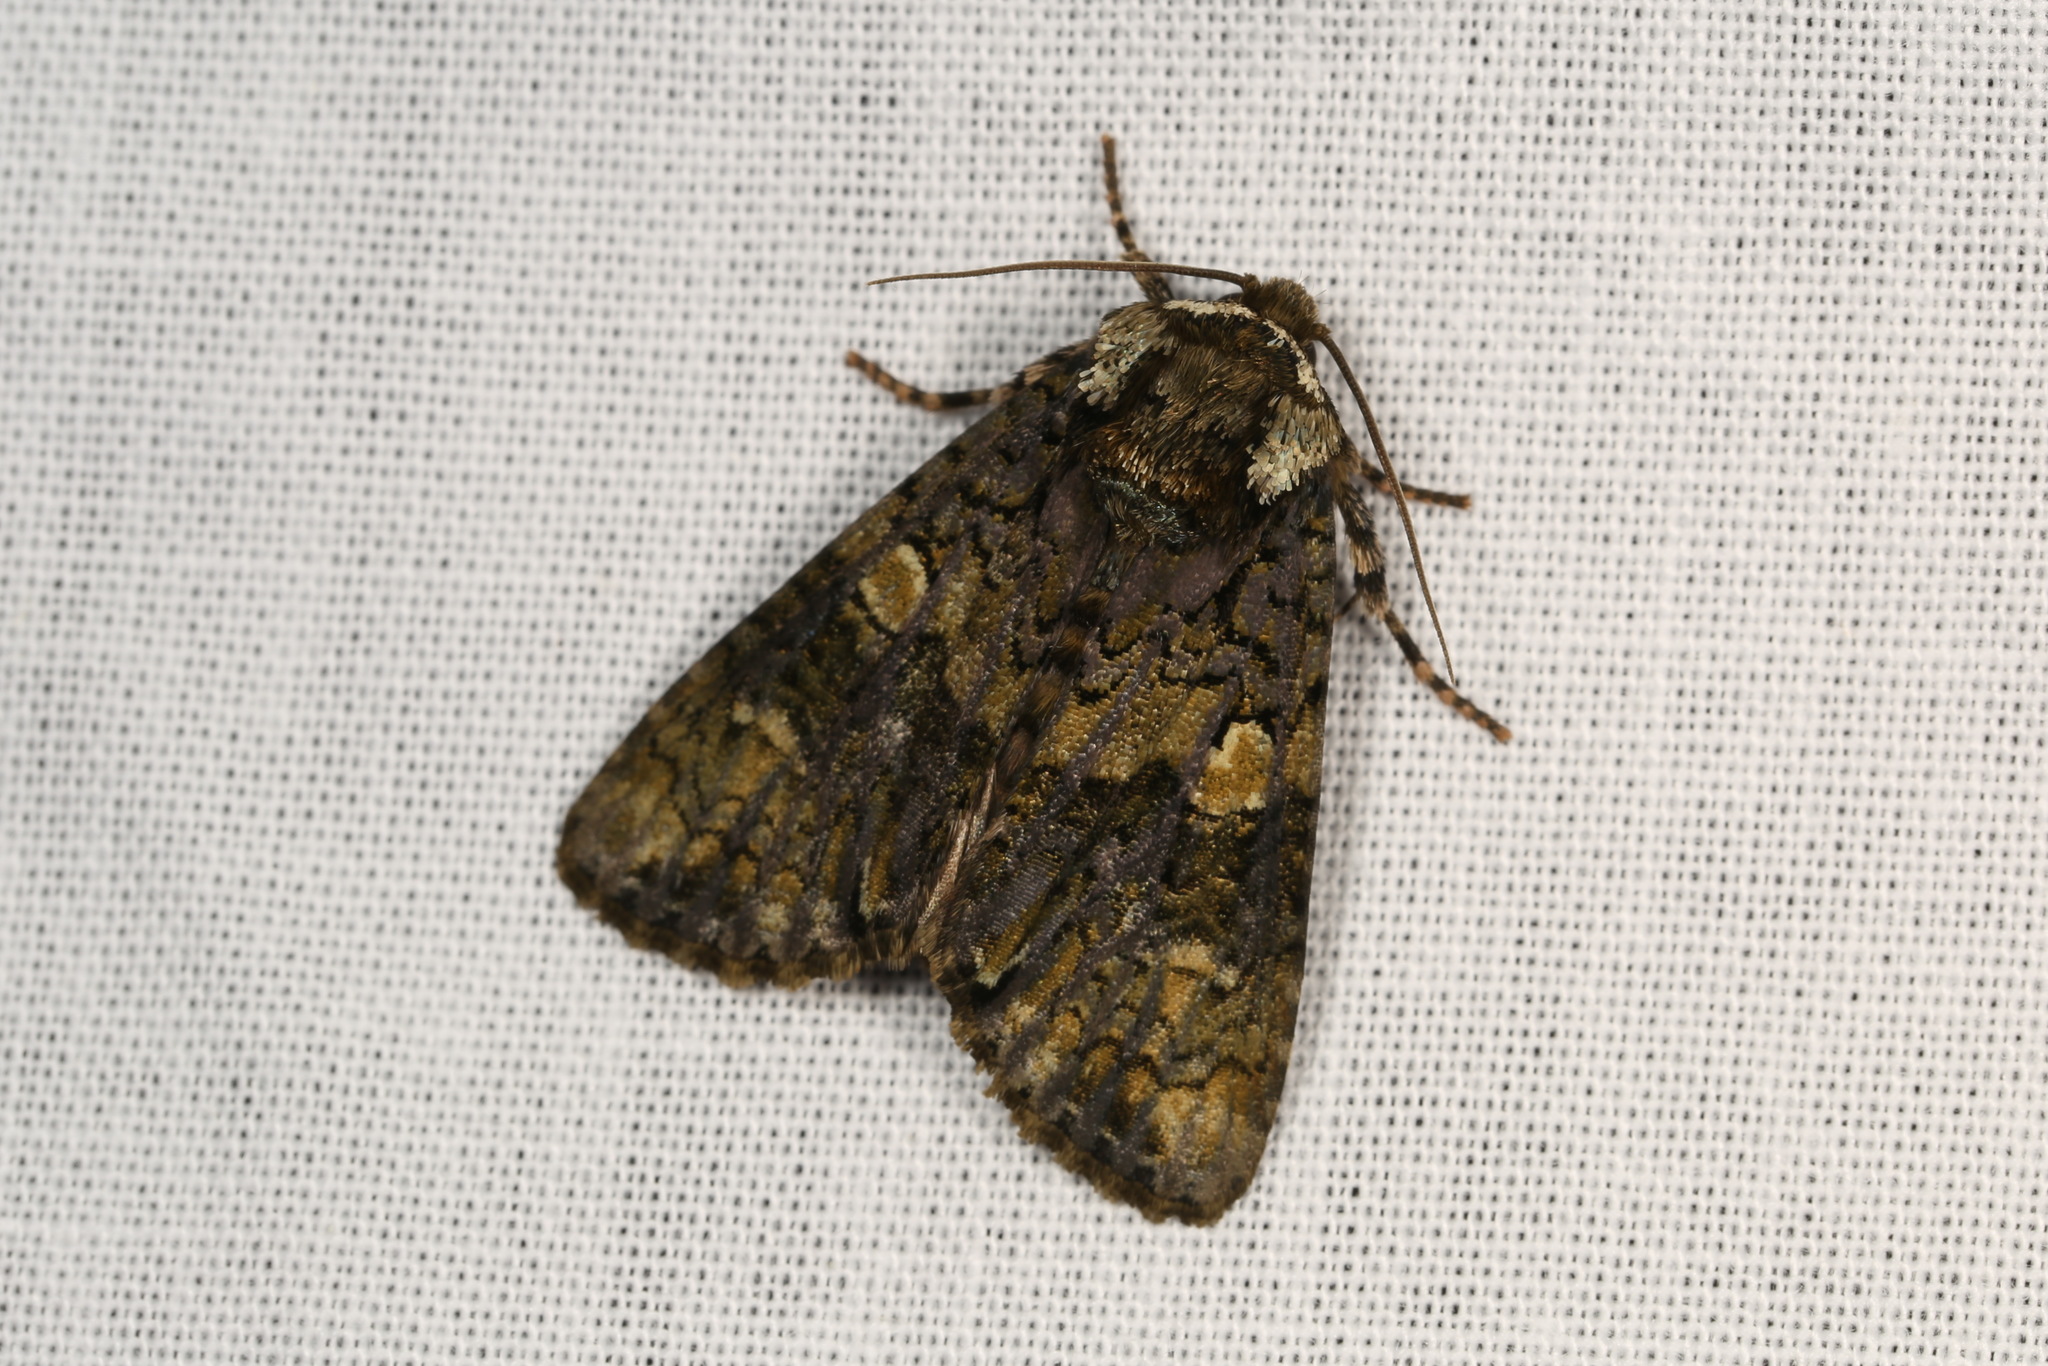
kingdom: Animalia
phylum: Arthropoda
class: Insecta
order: Lepidoptera
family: Noctuidae
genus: Craniophora
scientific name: Craniophora ligustri
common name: Coronet
